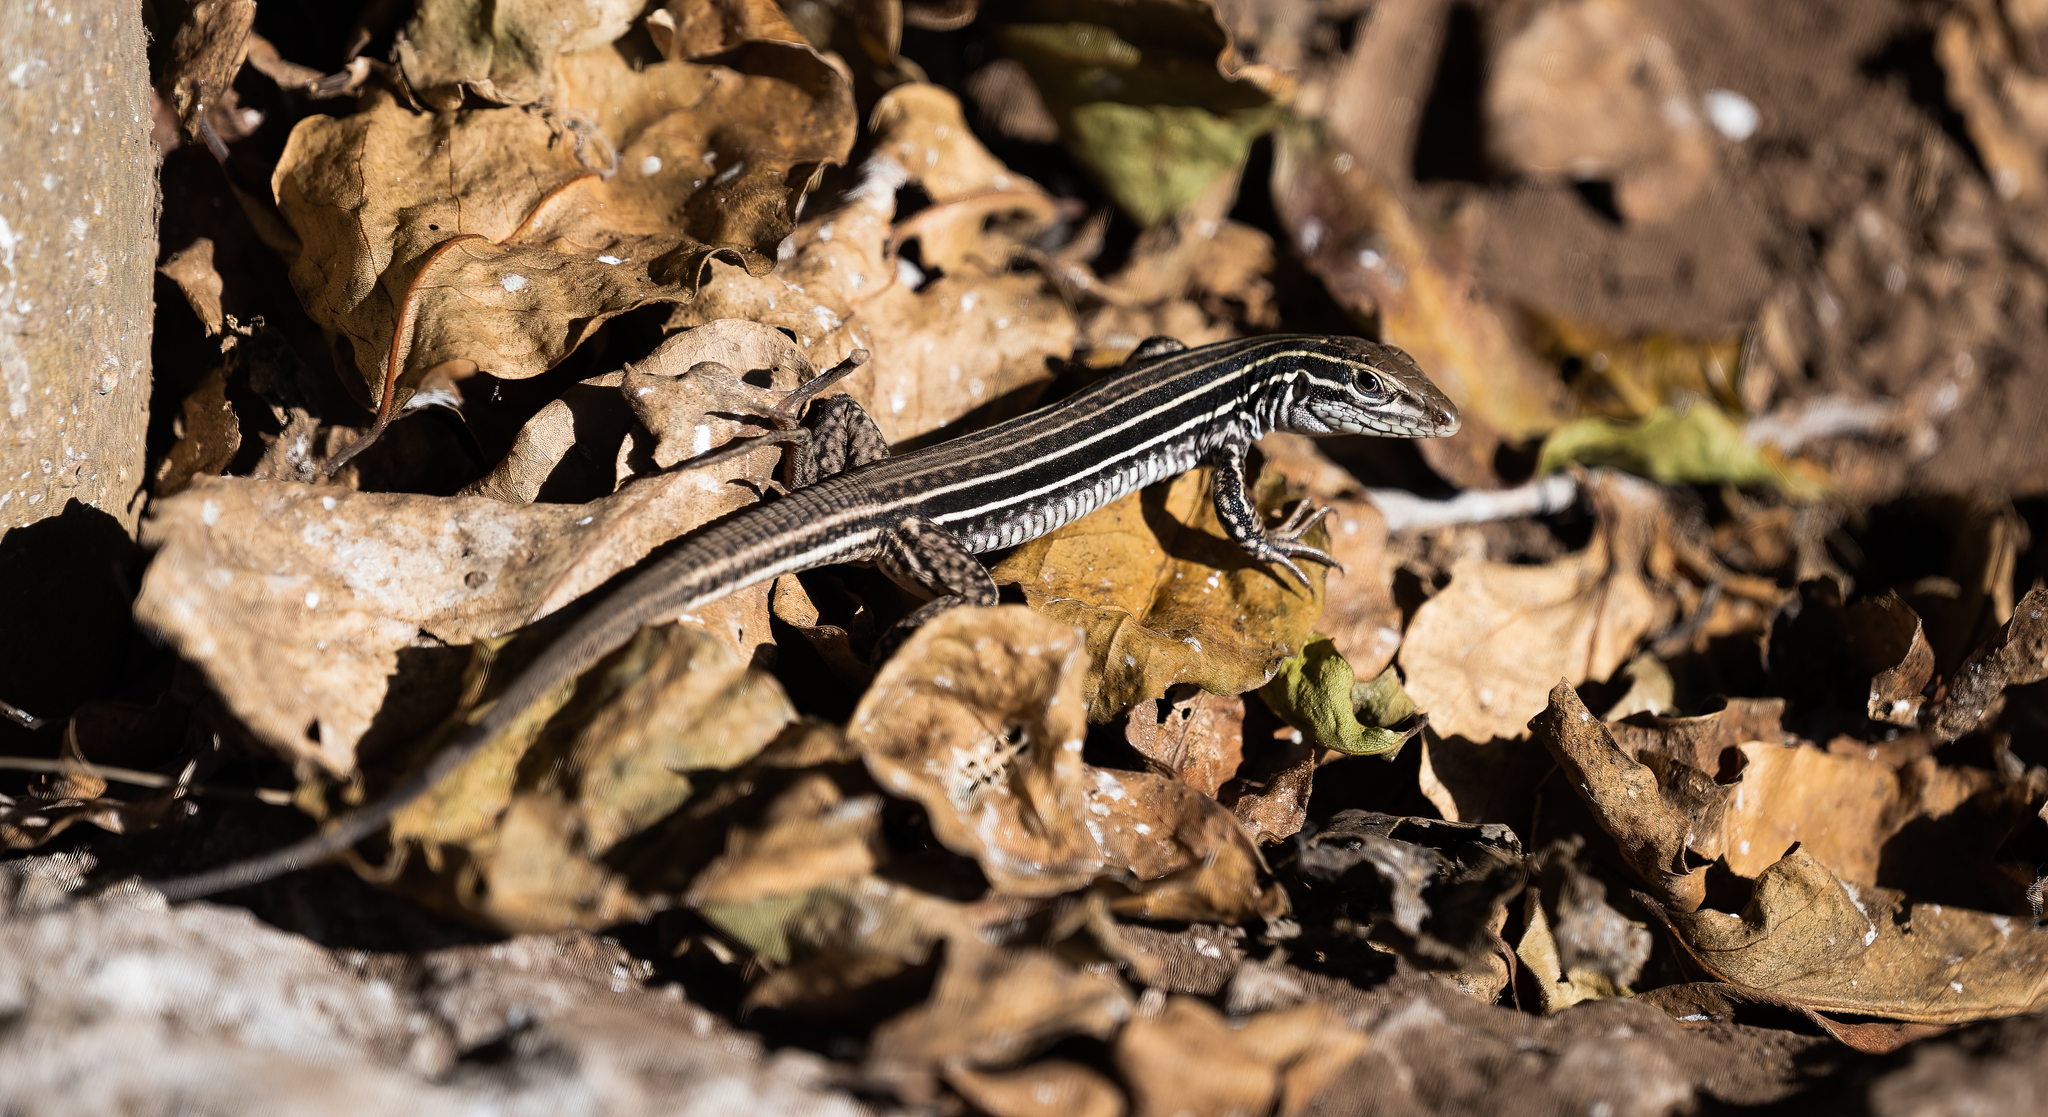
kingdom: Animalia
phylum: Chordata
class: Squamata
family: Teiidae
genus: Aspidoscelis
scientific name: Aspidoscelis costatus
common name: Western mexico whiptail
